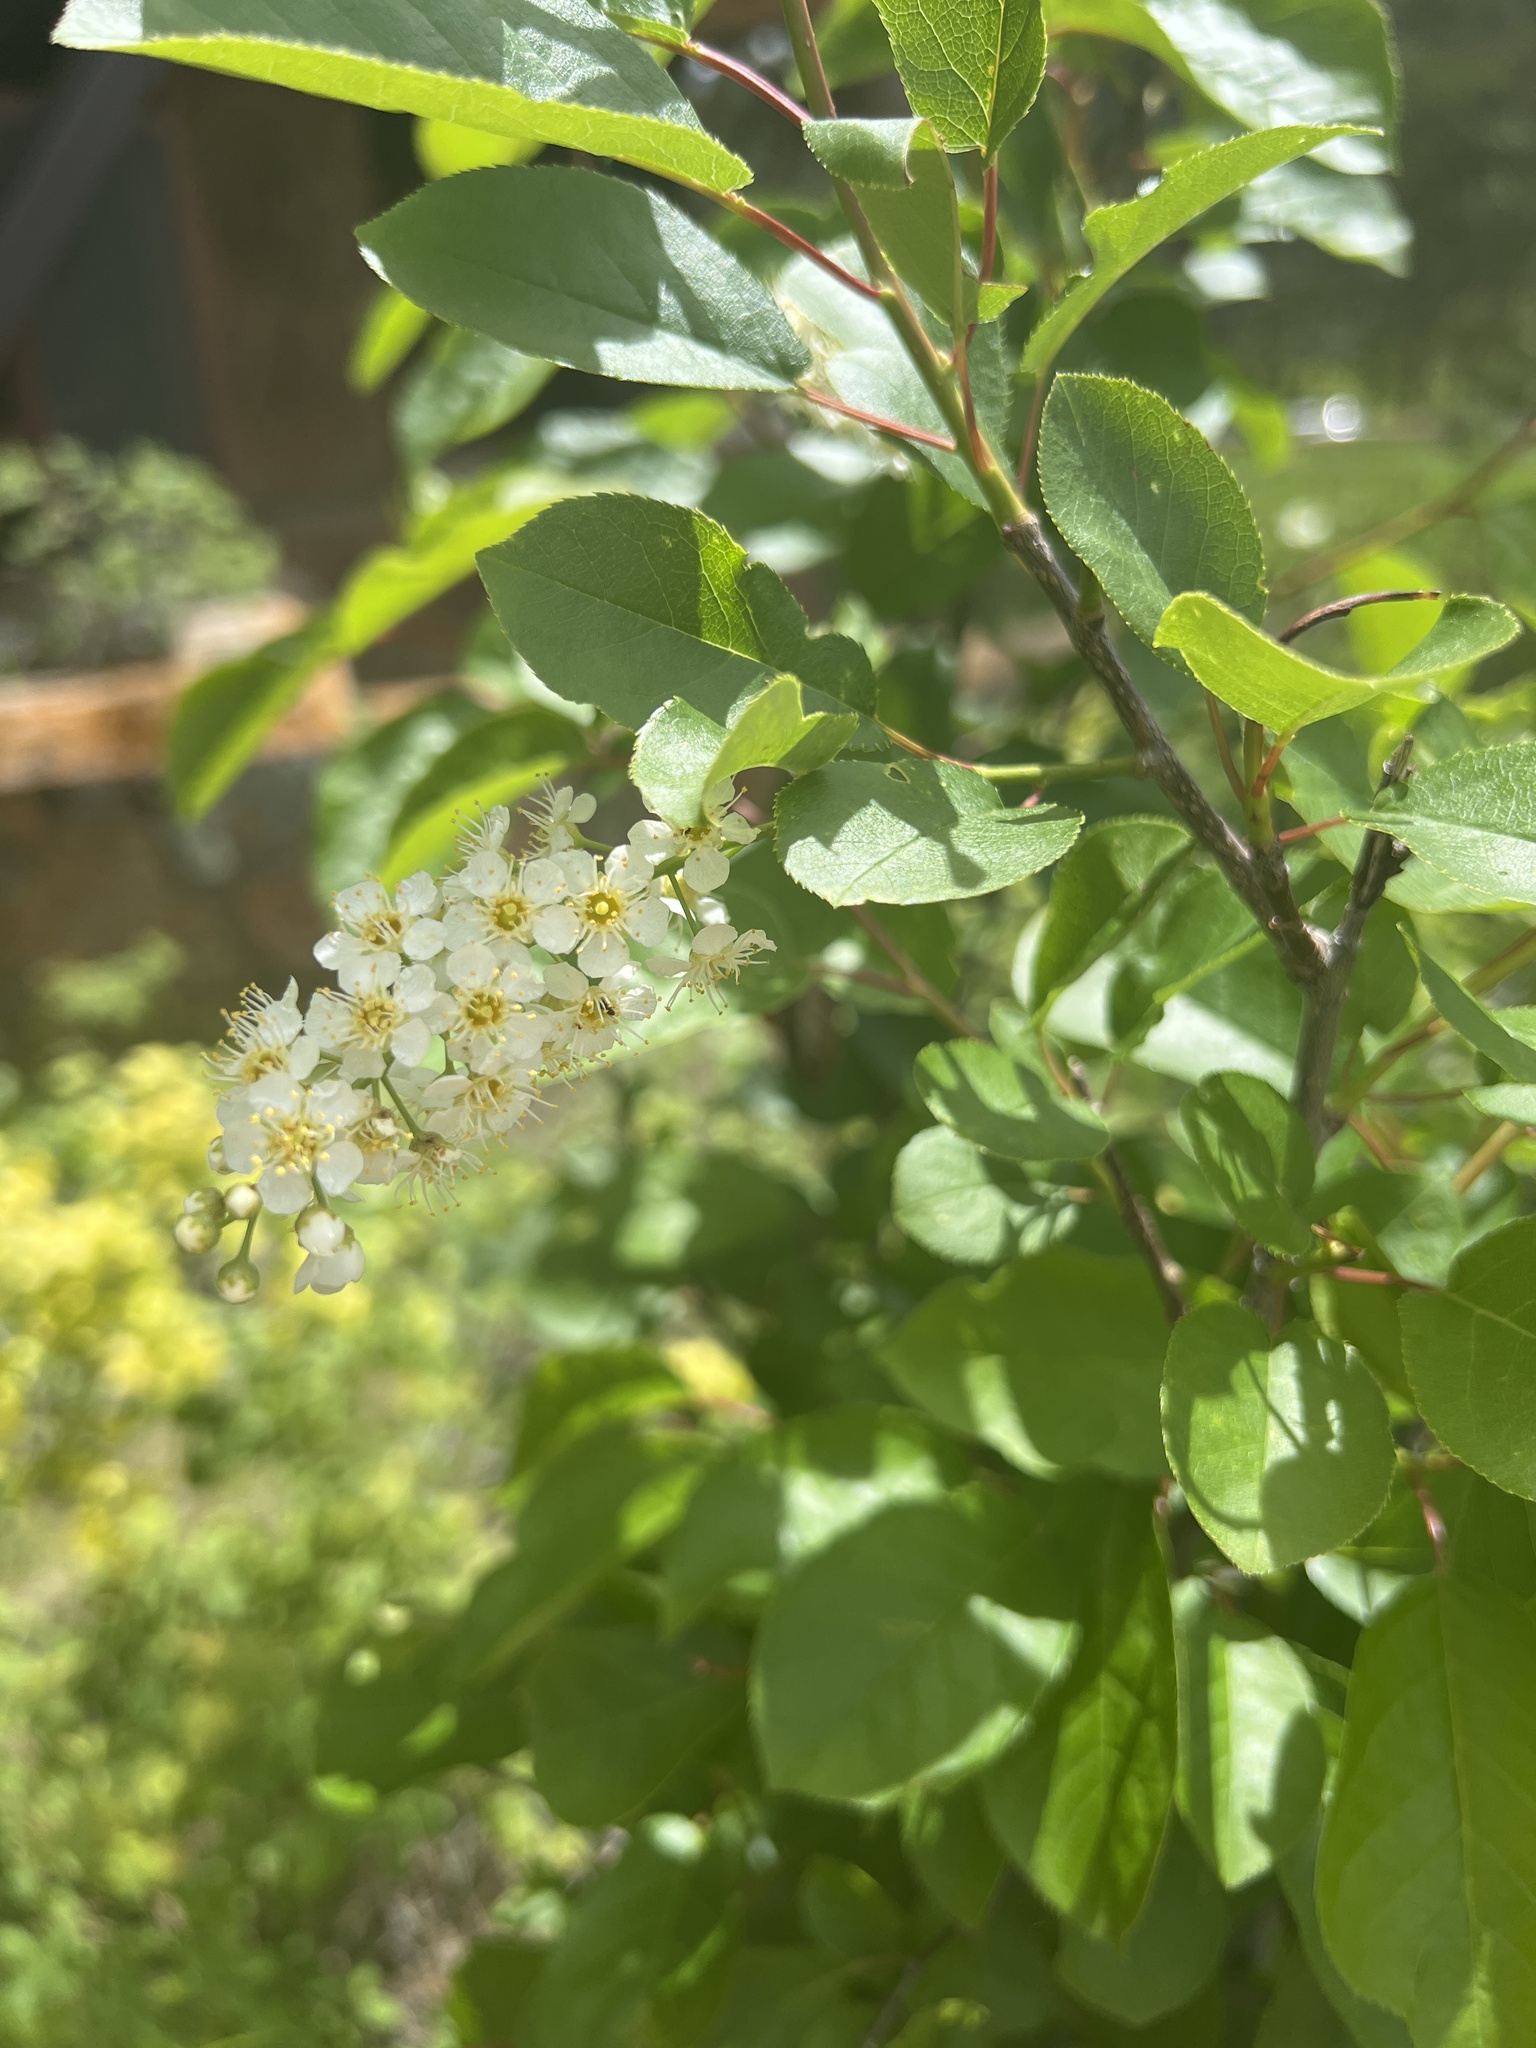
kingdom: Plantae
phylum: Tracheophyta
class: Magnoliopsida
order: Rosales
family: Rosaceae
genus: Prunus
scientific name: Prunus virginiana
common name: Chokecherry
